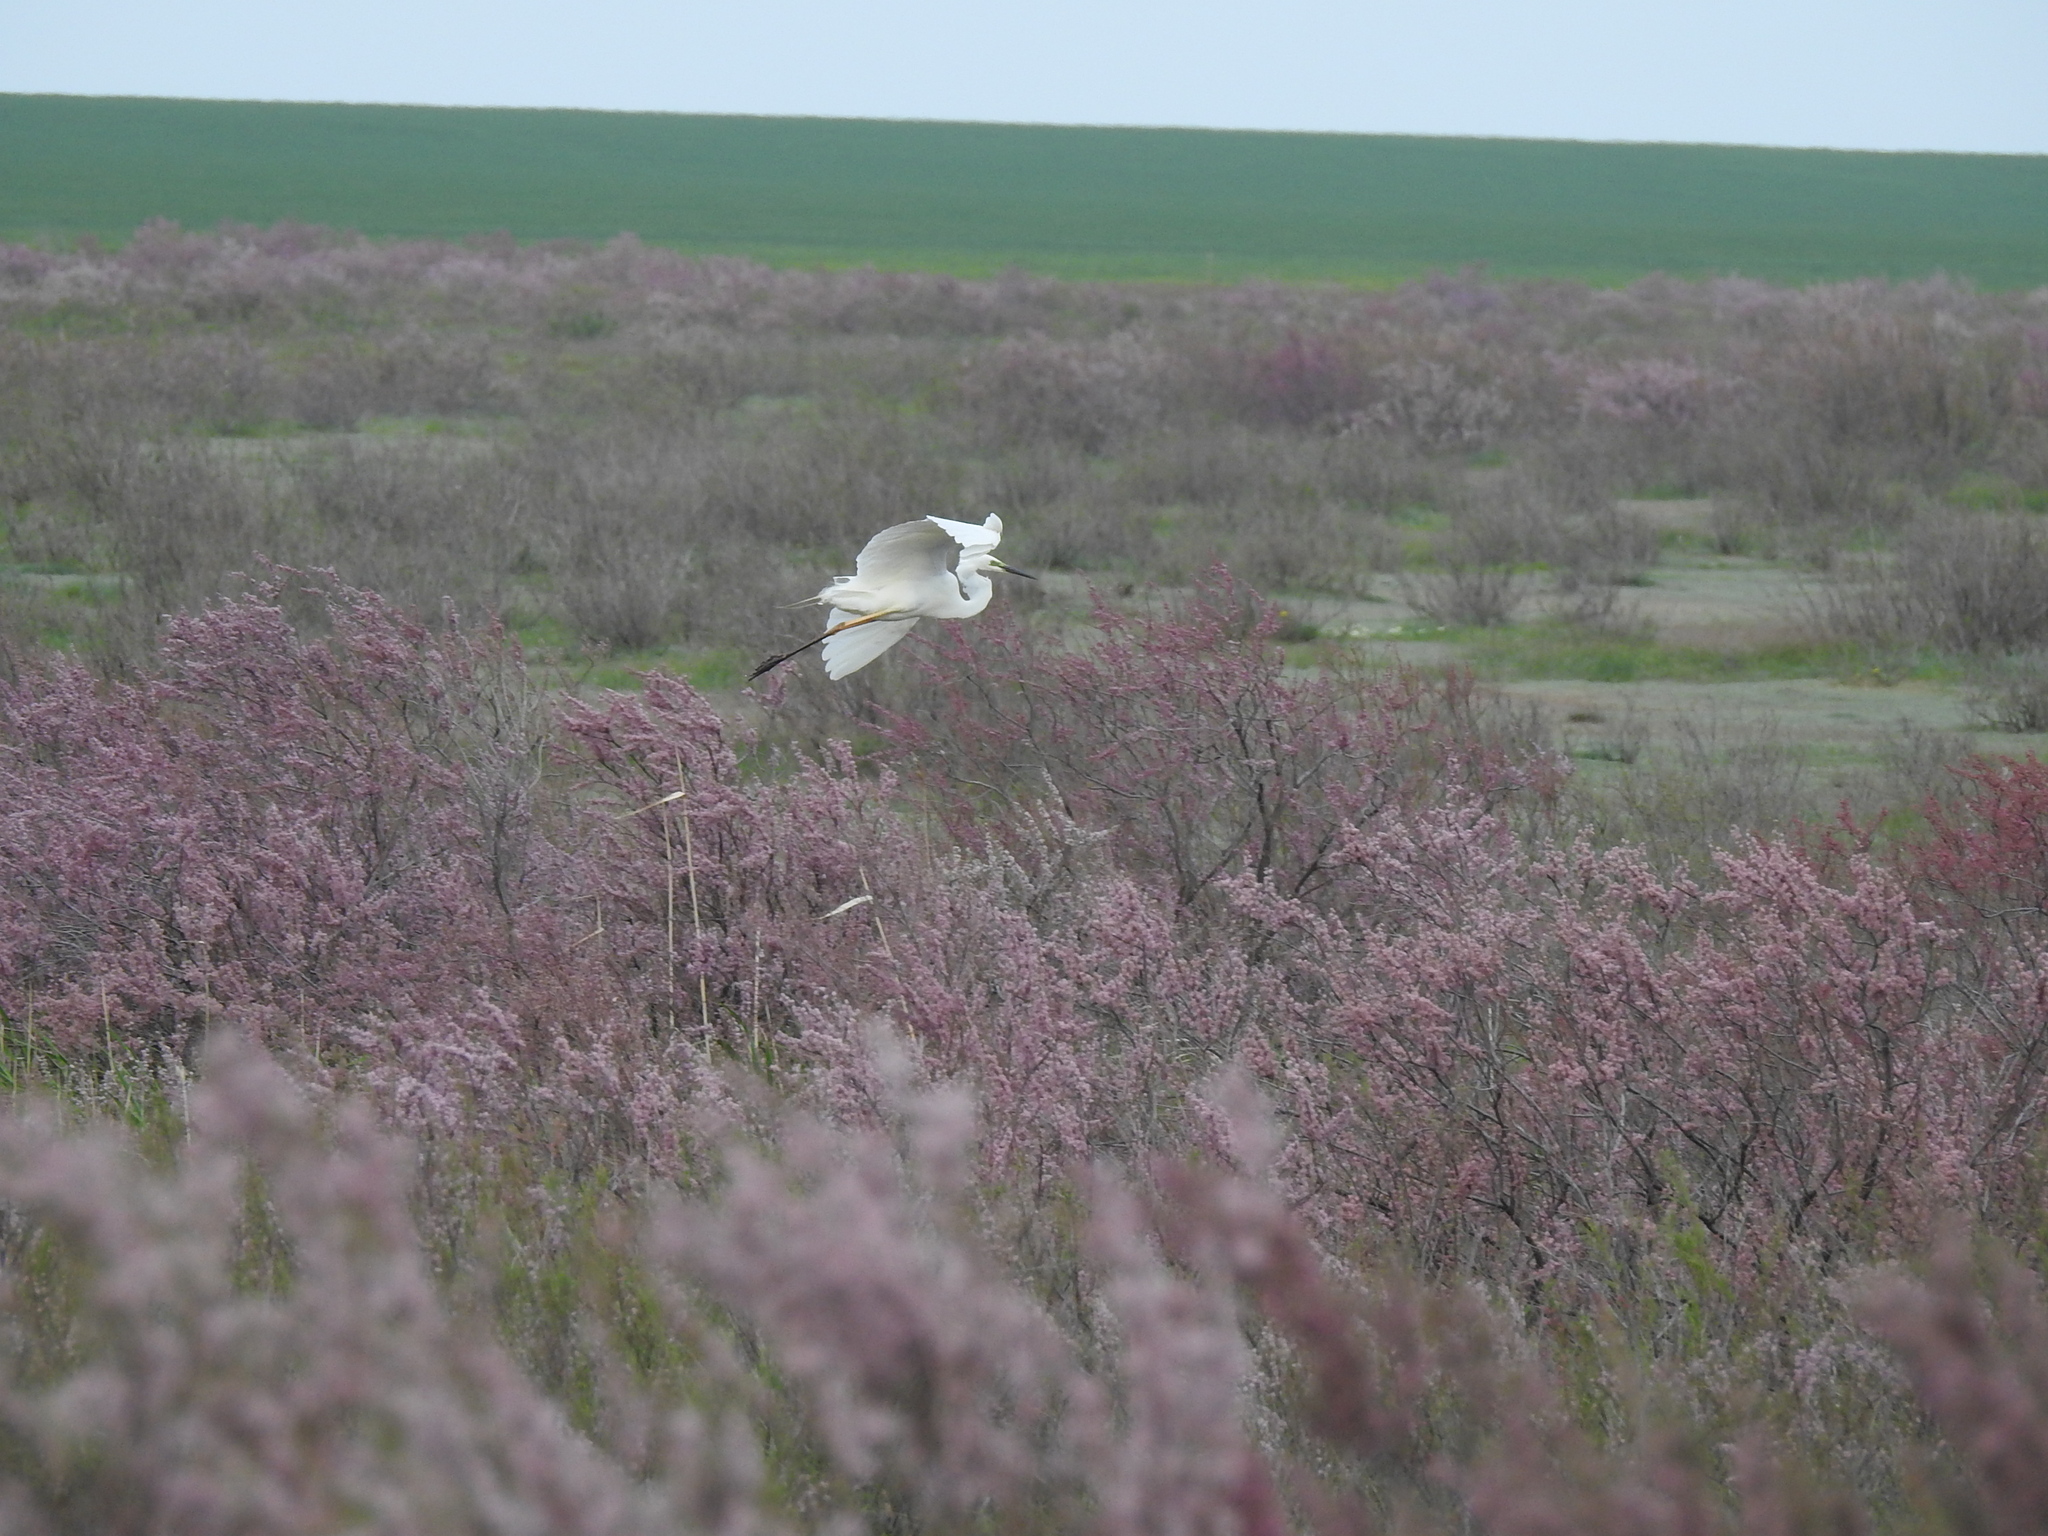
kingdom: Animalia
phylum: Chordata
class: Aves
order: Pelecaniformes
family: Ardeidae
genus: Ardea
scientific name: Ardea alba
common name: Great egret
